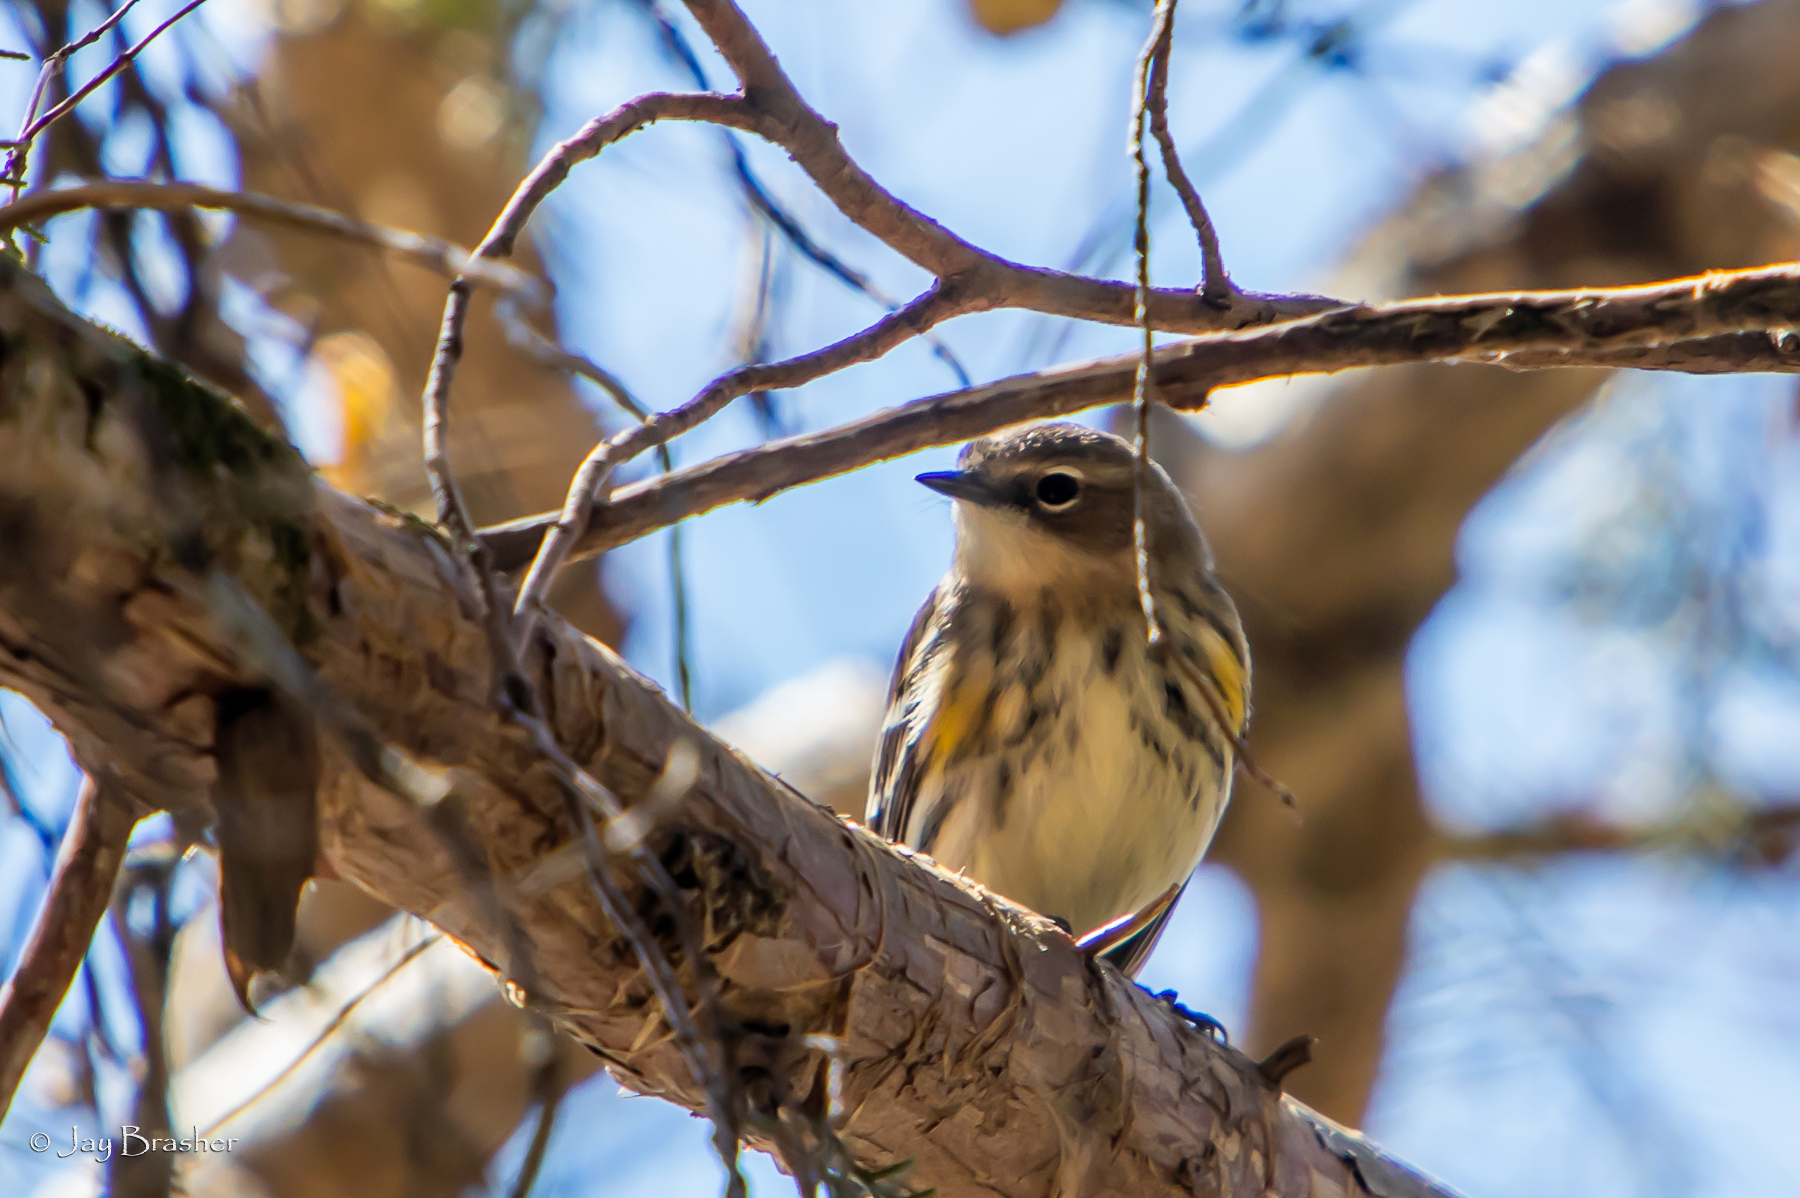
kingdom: Animalia
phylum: Chordata
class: Aves
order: Passeriformes
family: Parulidae
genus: Setophaga
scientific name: Setophaga coronata
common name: Myrtle warbler
